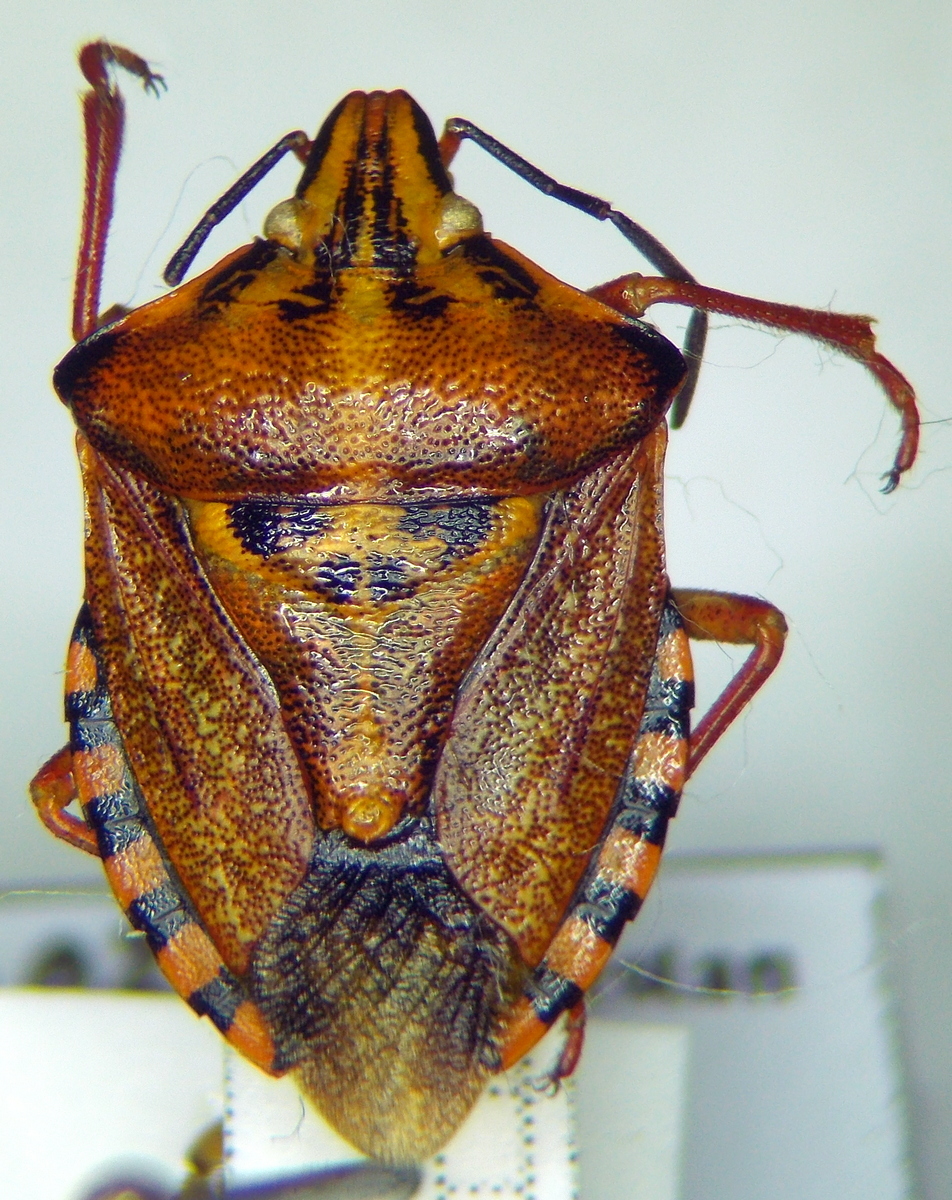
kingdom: Animalia
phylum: Arthropoda
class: Insecta
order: Hemiptera
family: Pentatomidae
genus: Carpocoris
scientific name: Carpocoris mediterraneus
